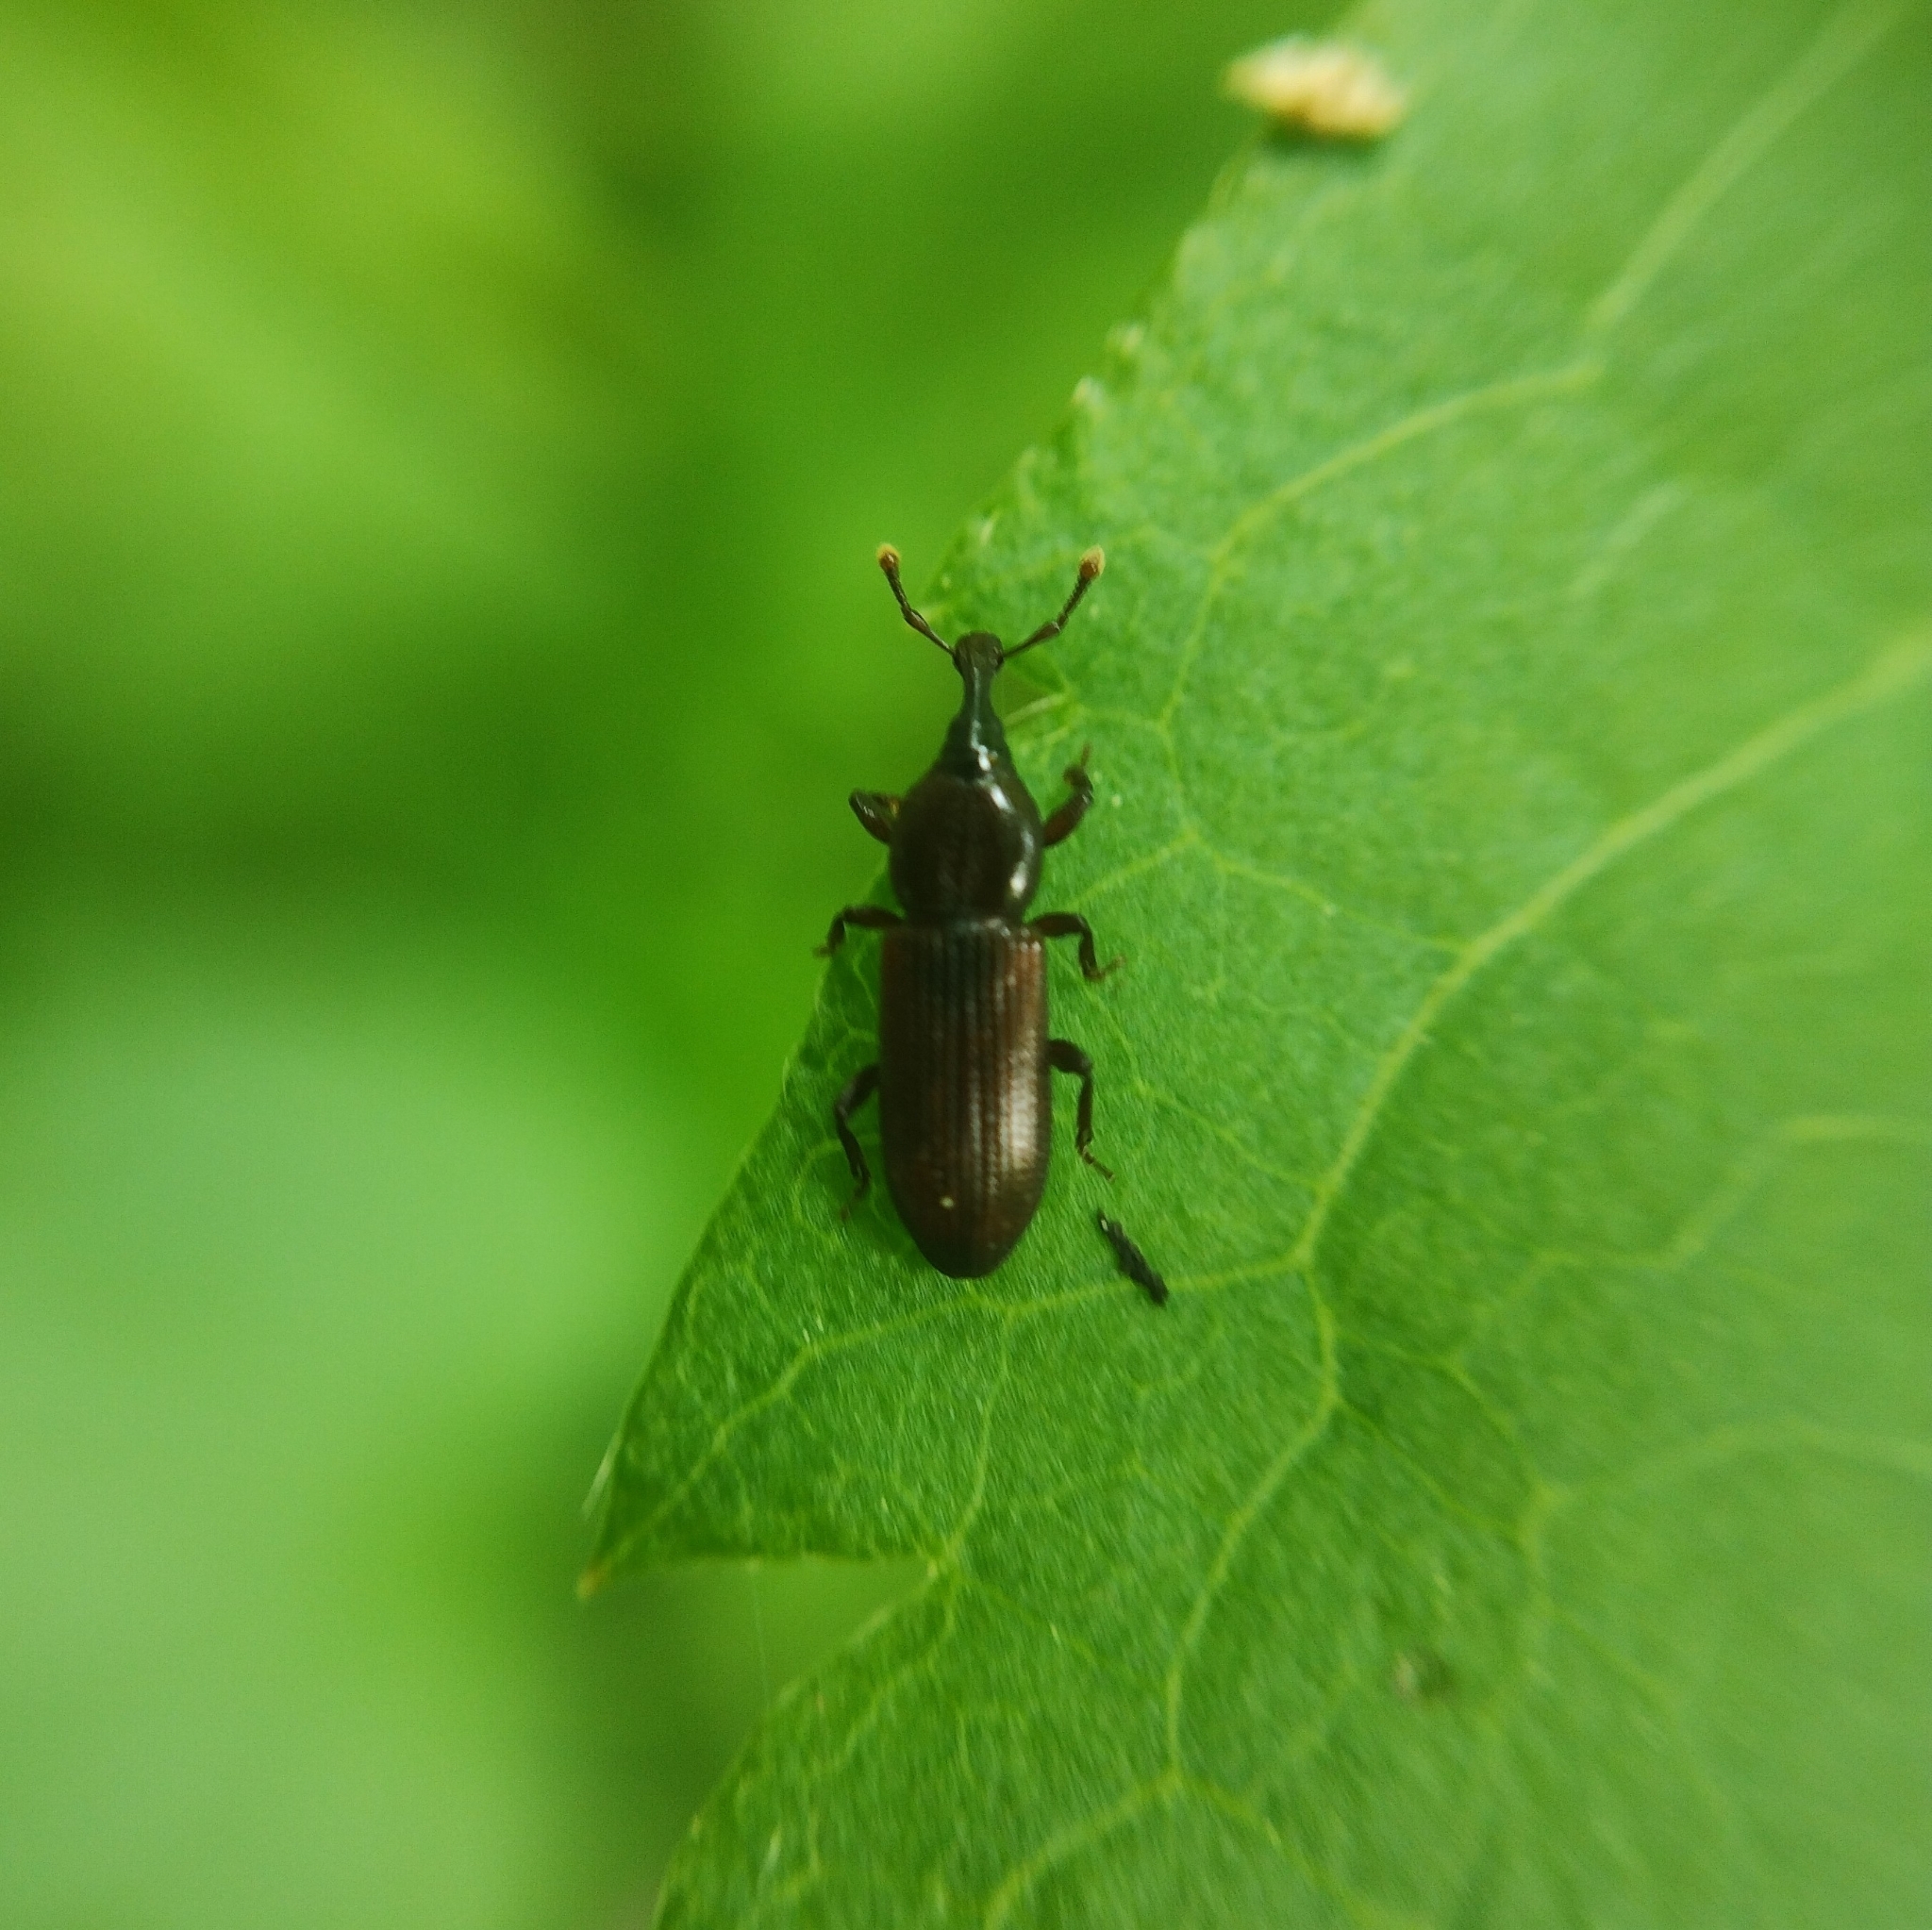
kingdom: Animalia
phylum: Arthropoda
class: Insecta
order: Coleoptera
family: Curculionidae
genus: Cossonus
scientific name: Cossonus linearis
